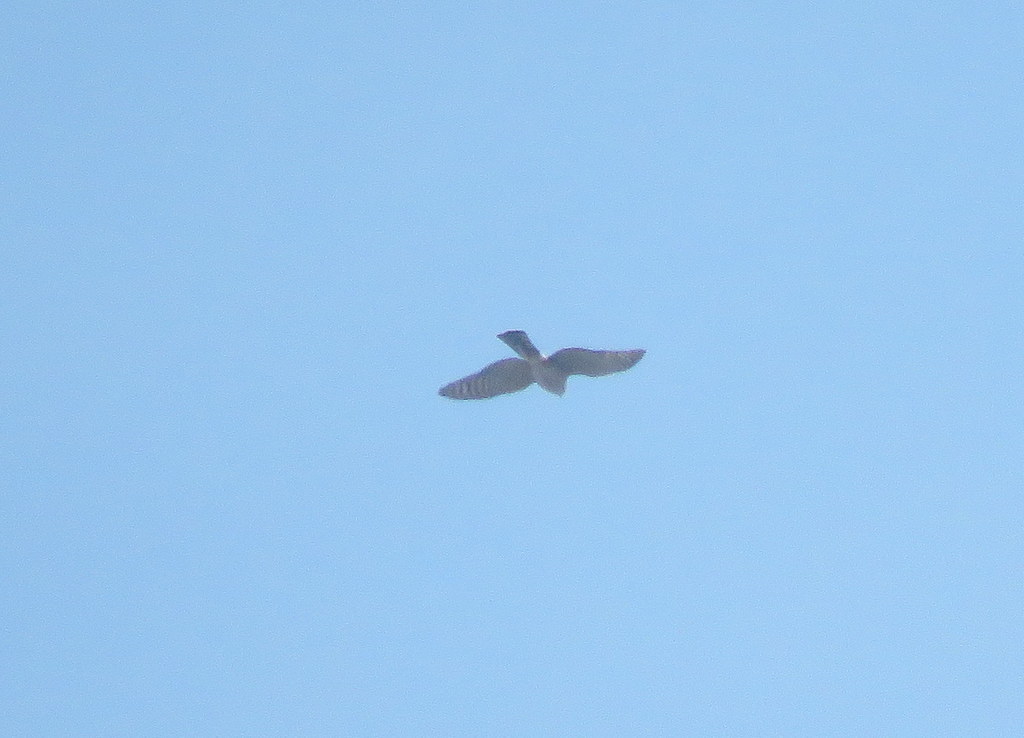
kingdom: Animalia
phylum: Chordata
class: Aves
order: Falconiformes
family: Falconidae
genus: Falco
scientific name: Falco sparverius
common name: American kestrel
